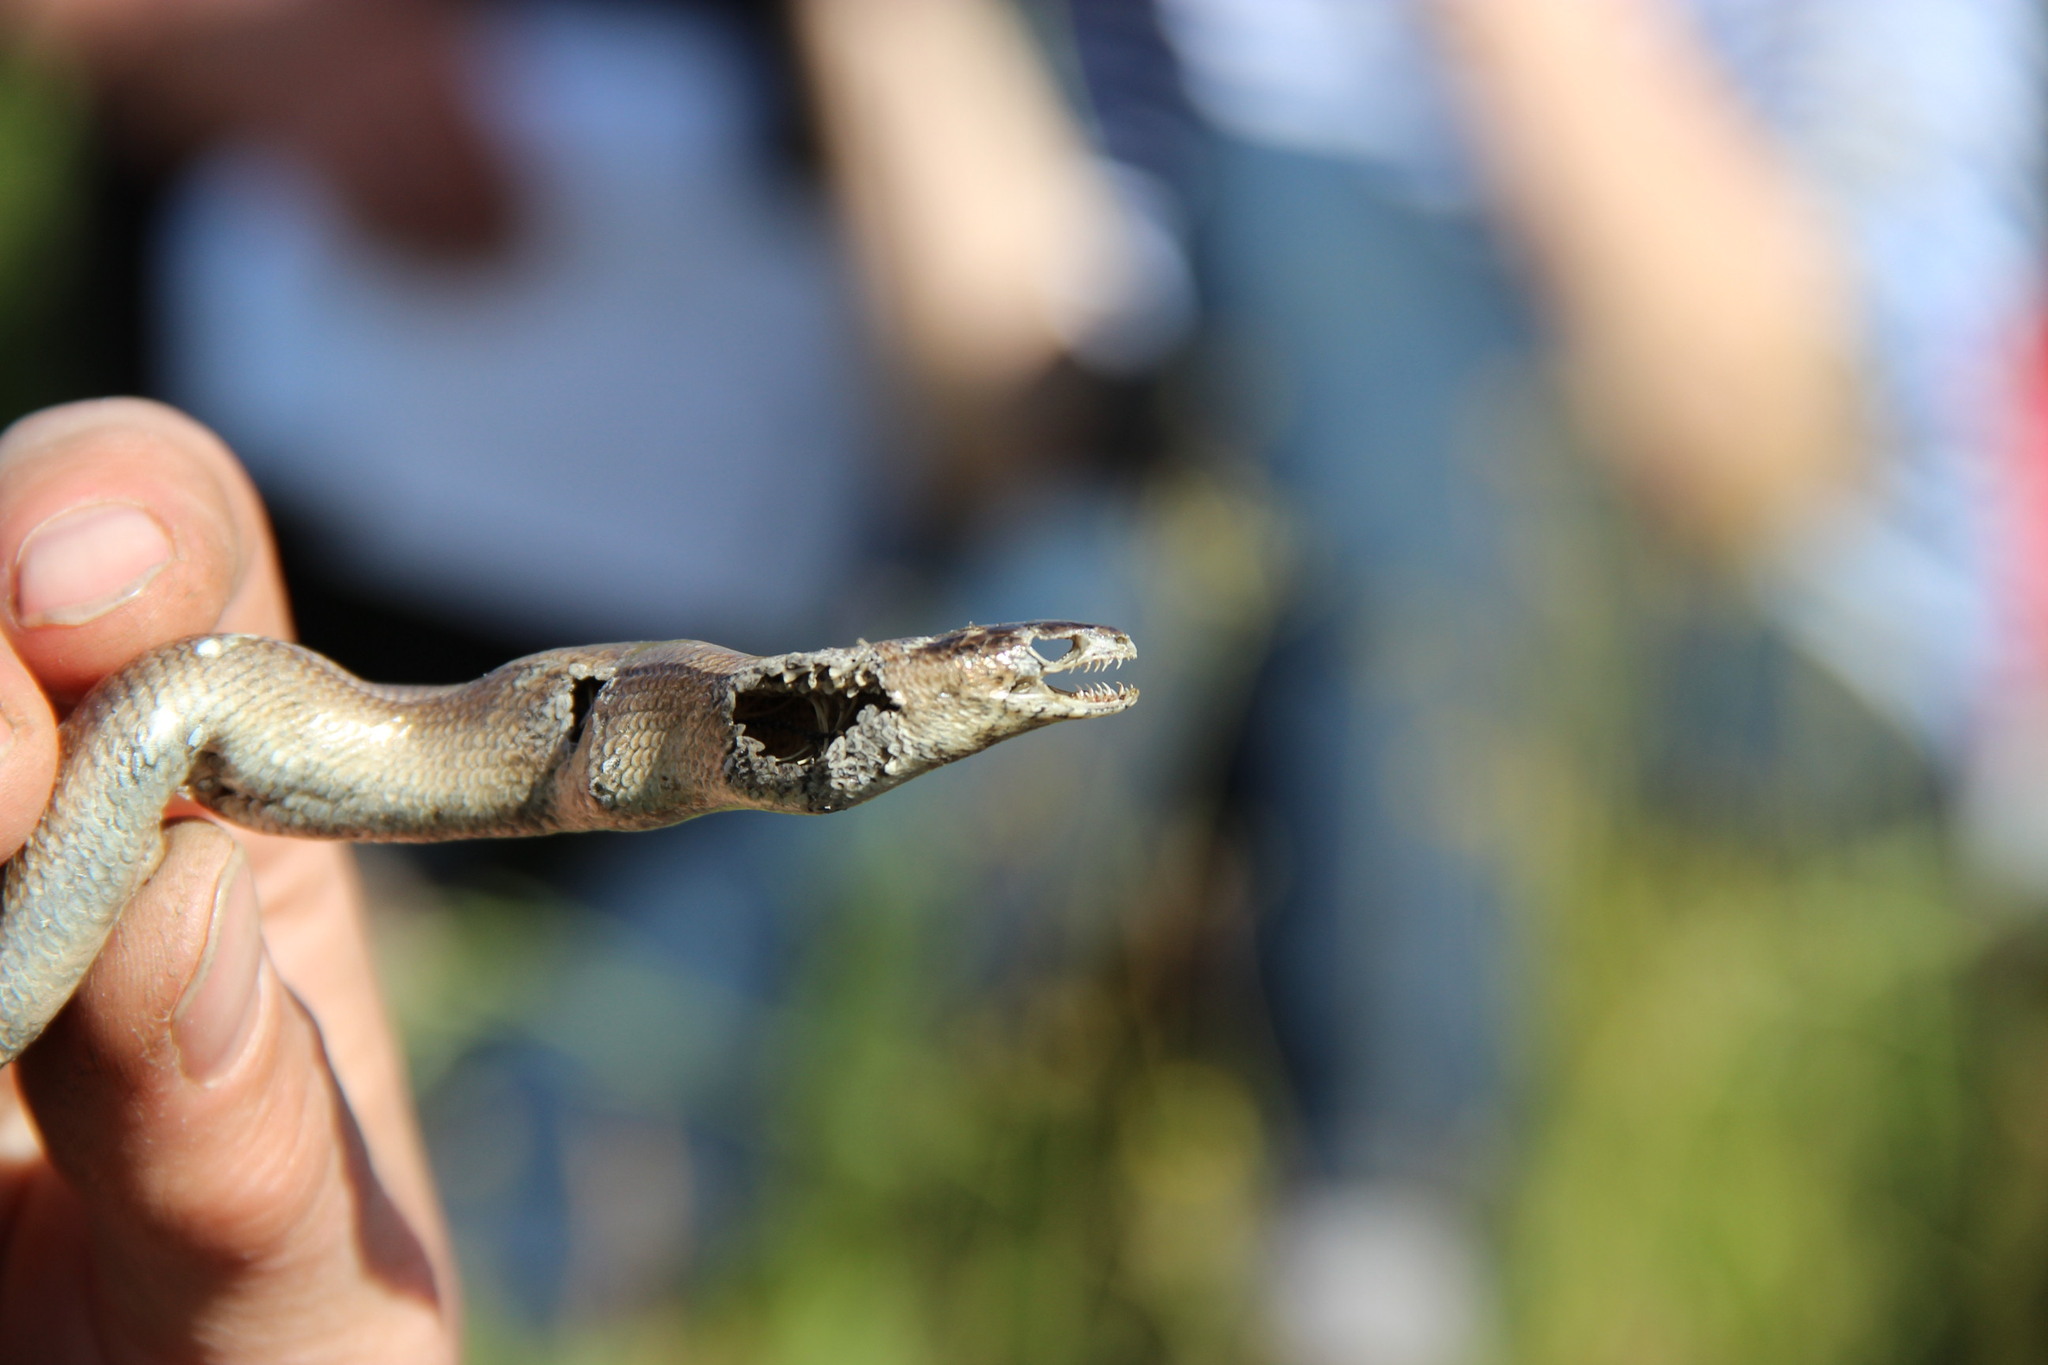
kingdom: Animalia
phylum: Chordata
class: Squamata
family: Anguidae
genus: Anguis
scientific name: Anguis colchica
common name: Slow worm
